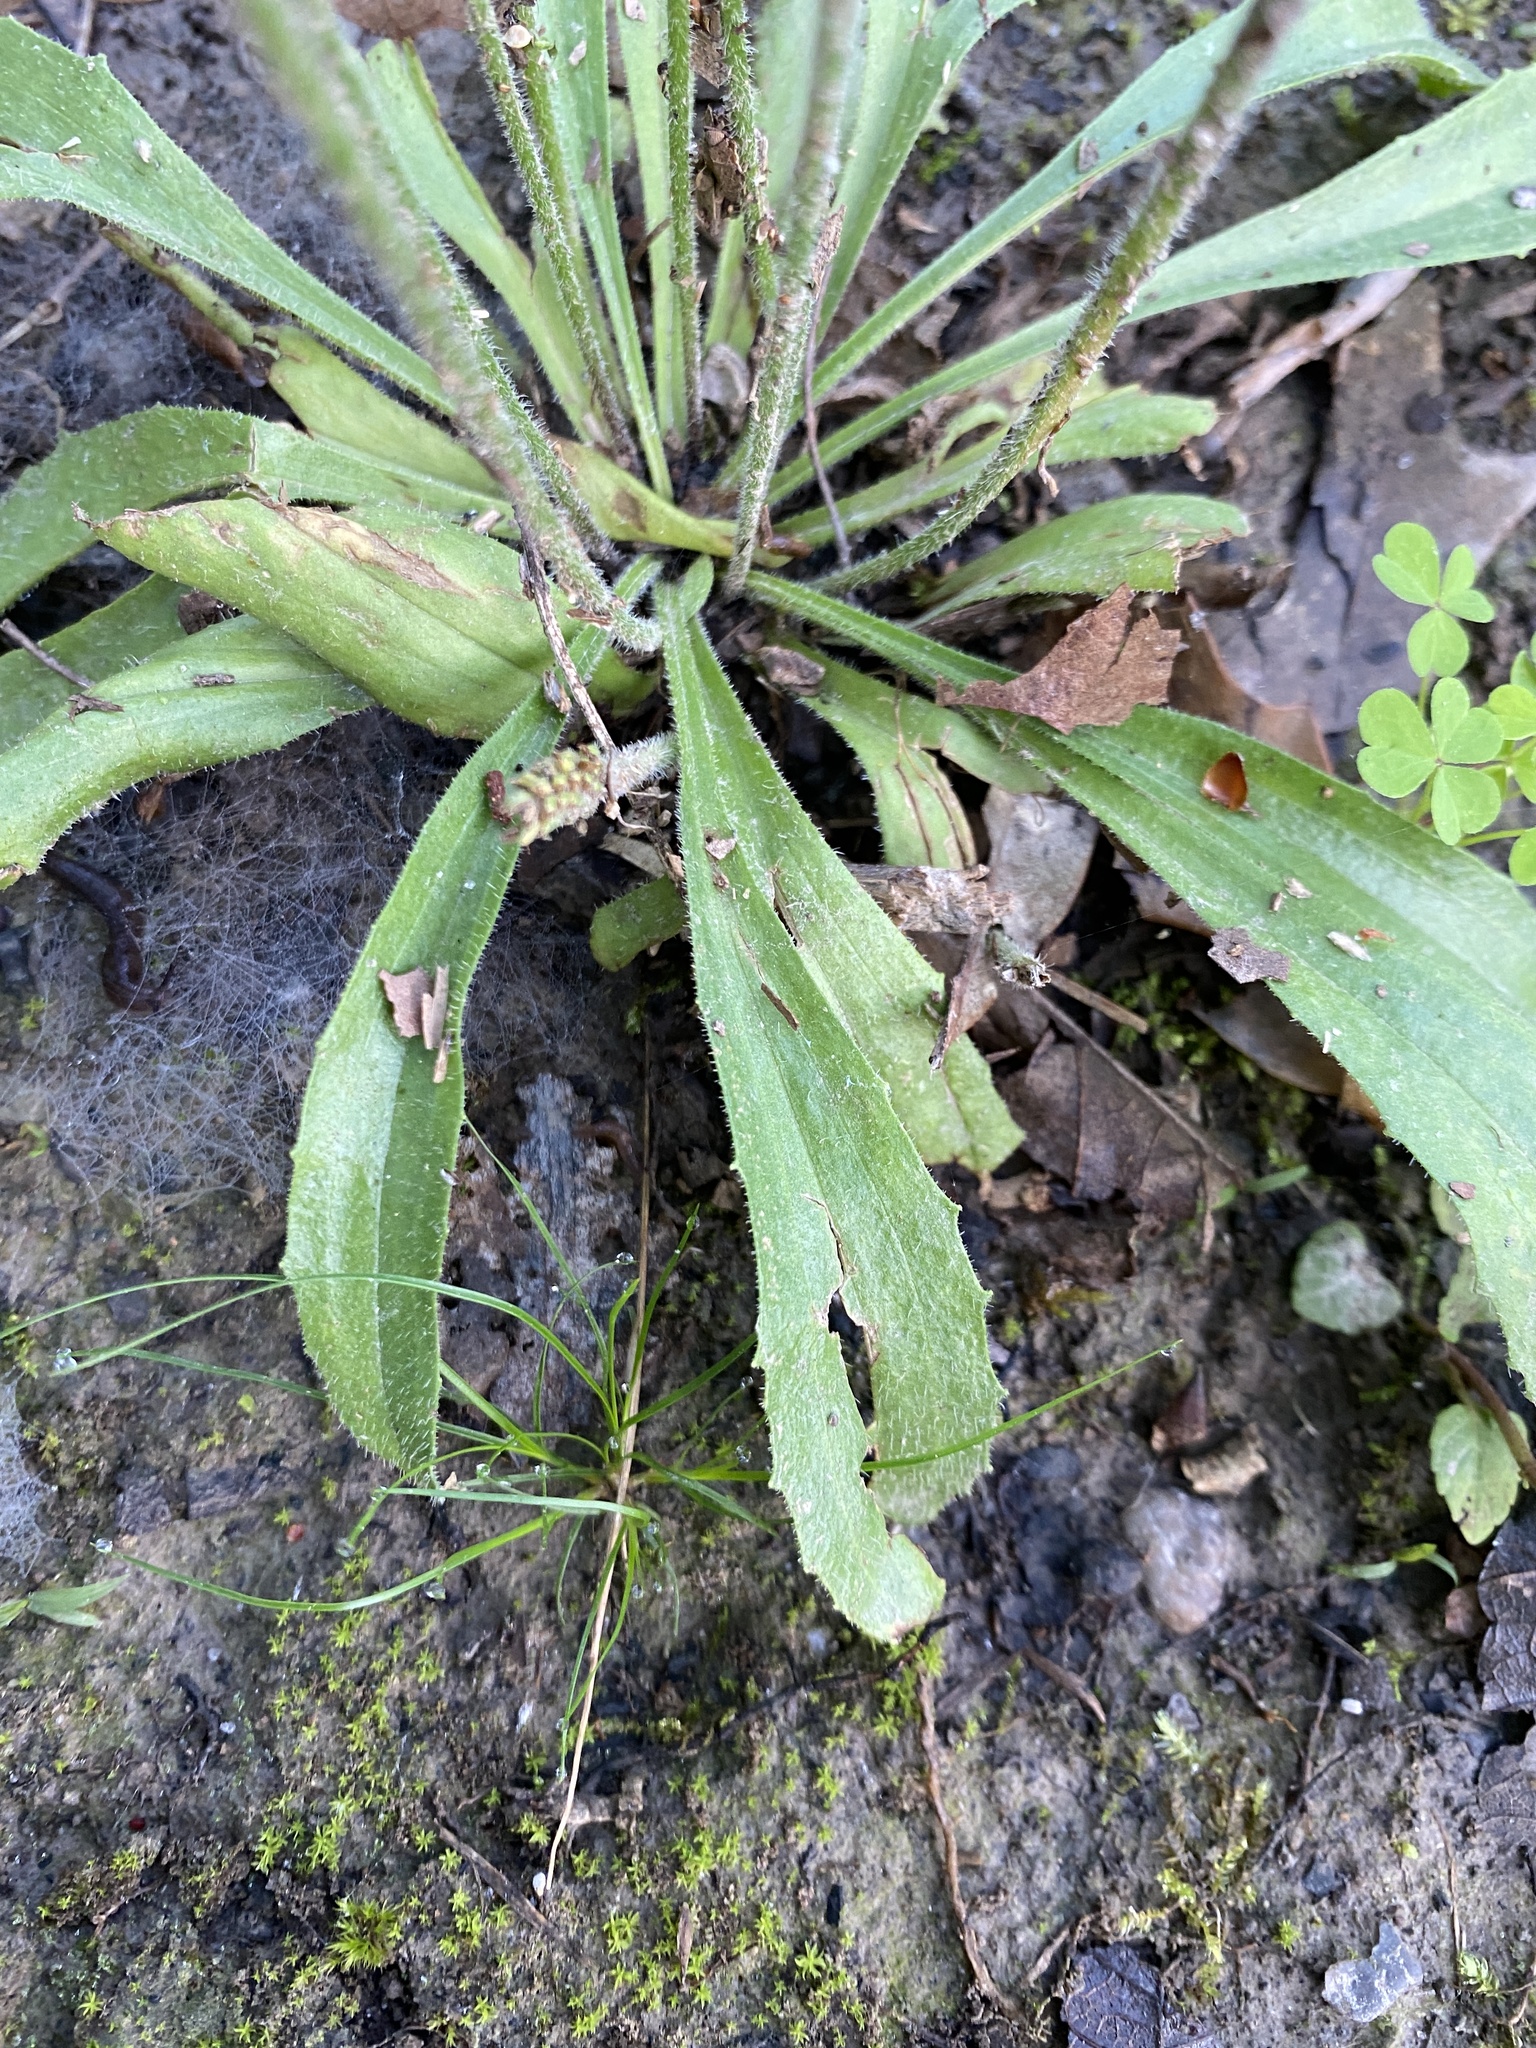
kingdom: Plantae
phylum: Tracheophyta
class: Magnoliopsida
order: Lamiales
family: Plantaginaceae
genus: Plantago
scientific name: Plantago virginica
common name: Hoary plantain
